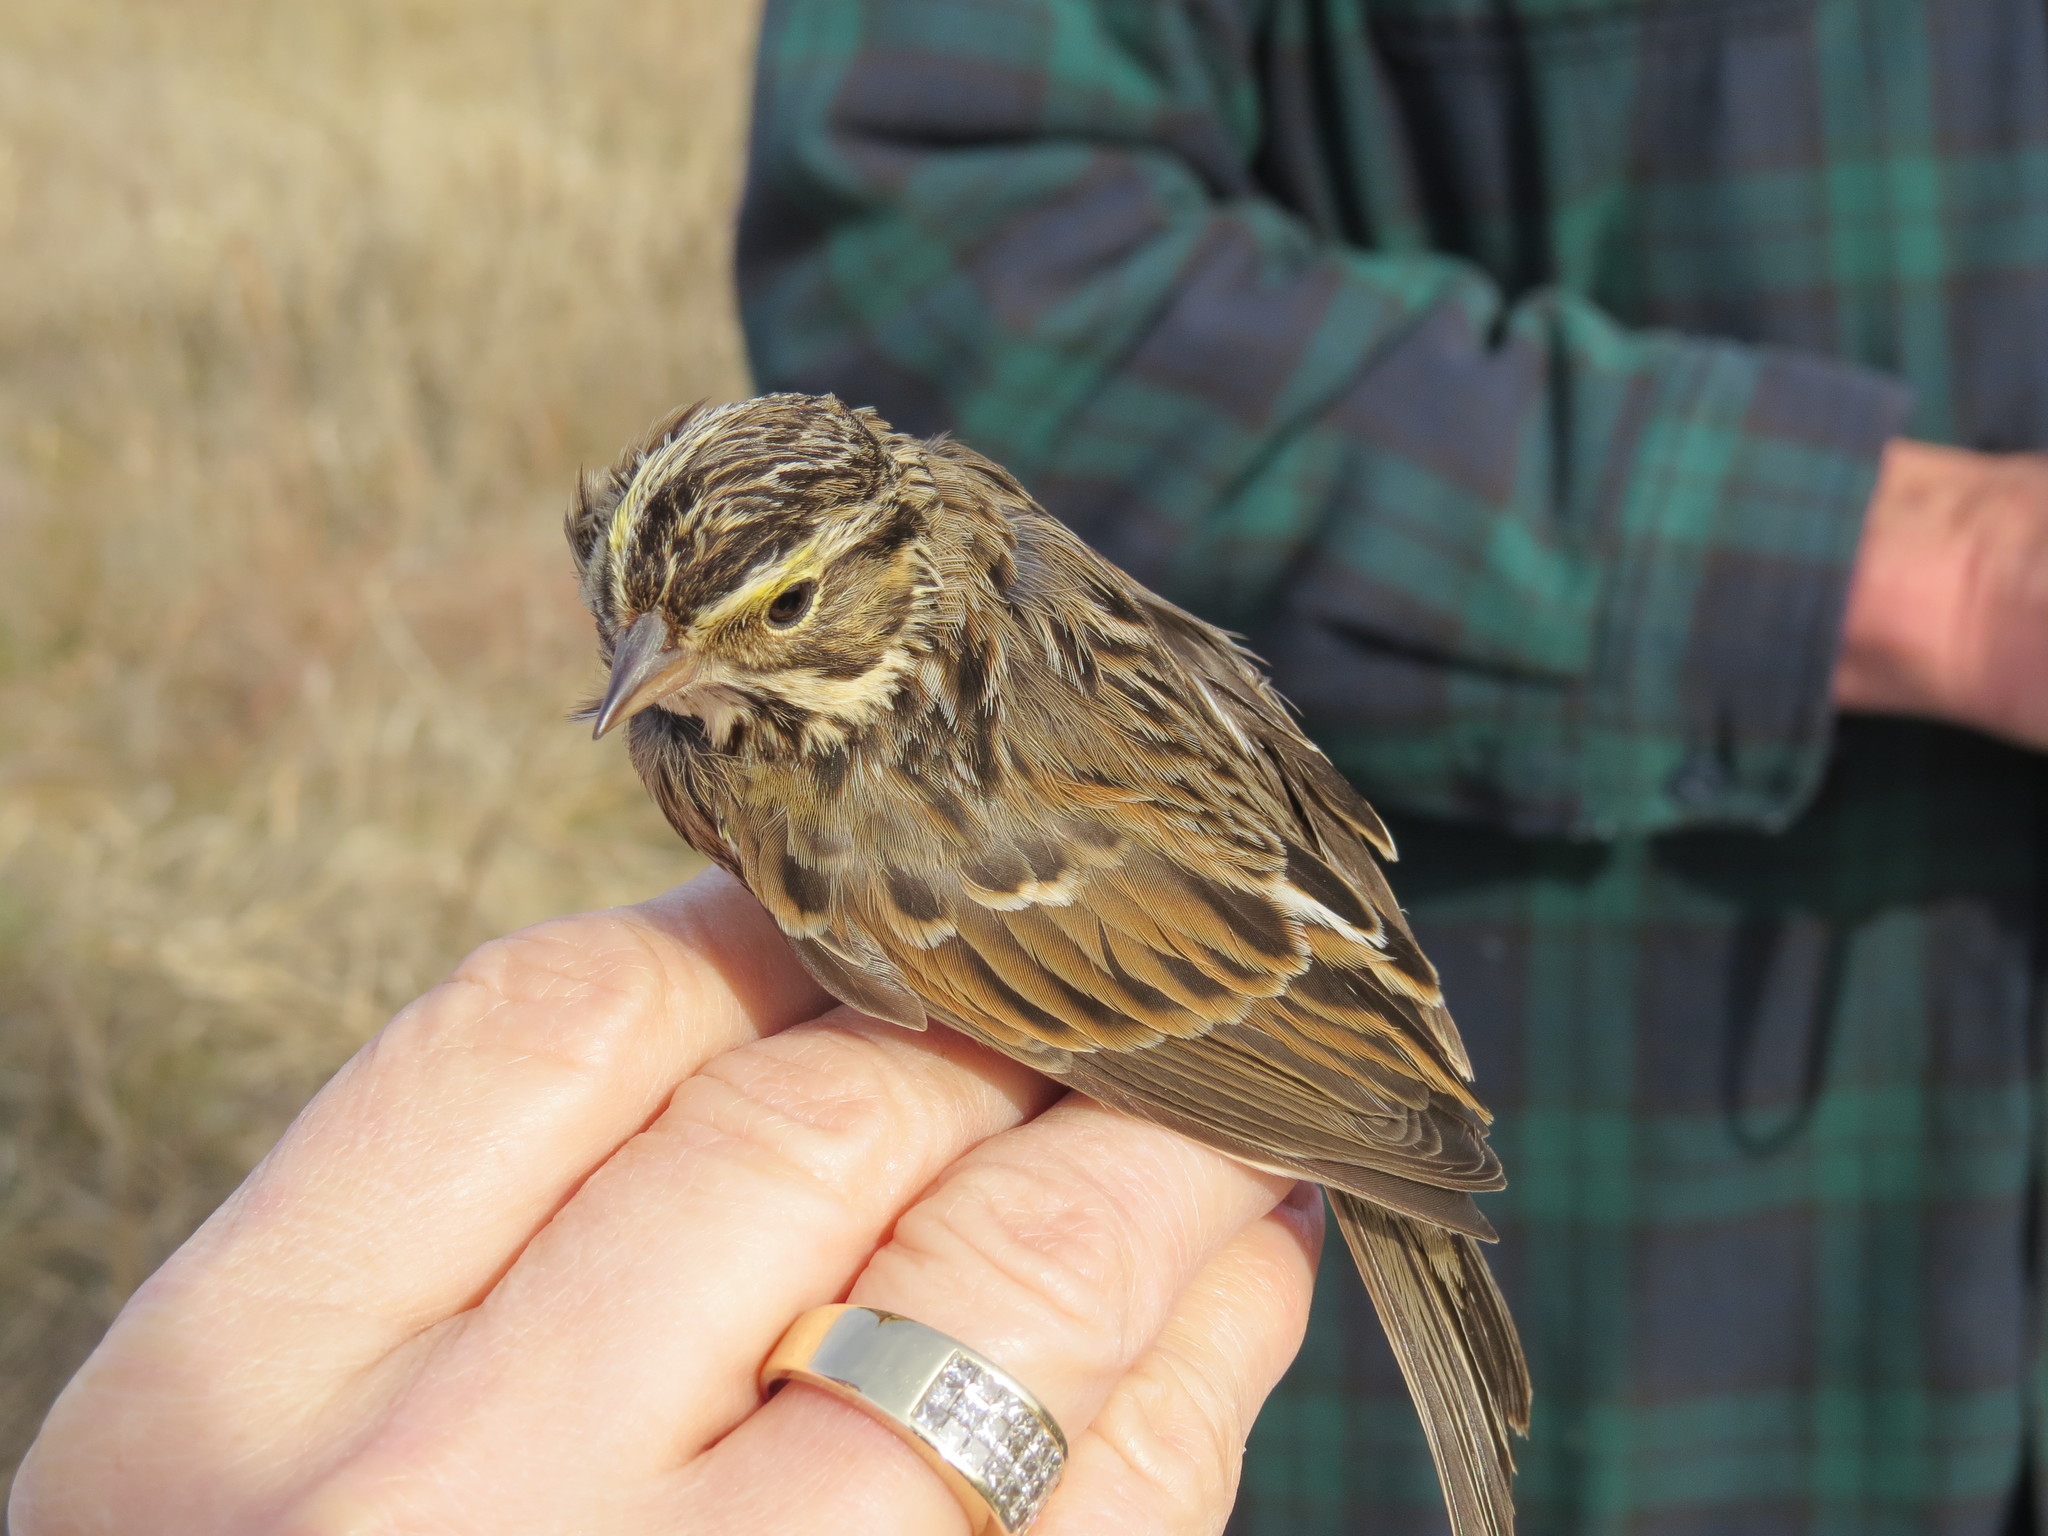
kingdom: Animalia
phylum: Chordata
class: Aves
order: Passeriformes
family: Passerellidae
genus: Passerculus
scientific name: Passerculus sandwichensis
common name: Savannah sparrow
